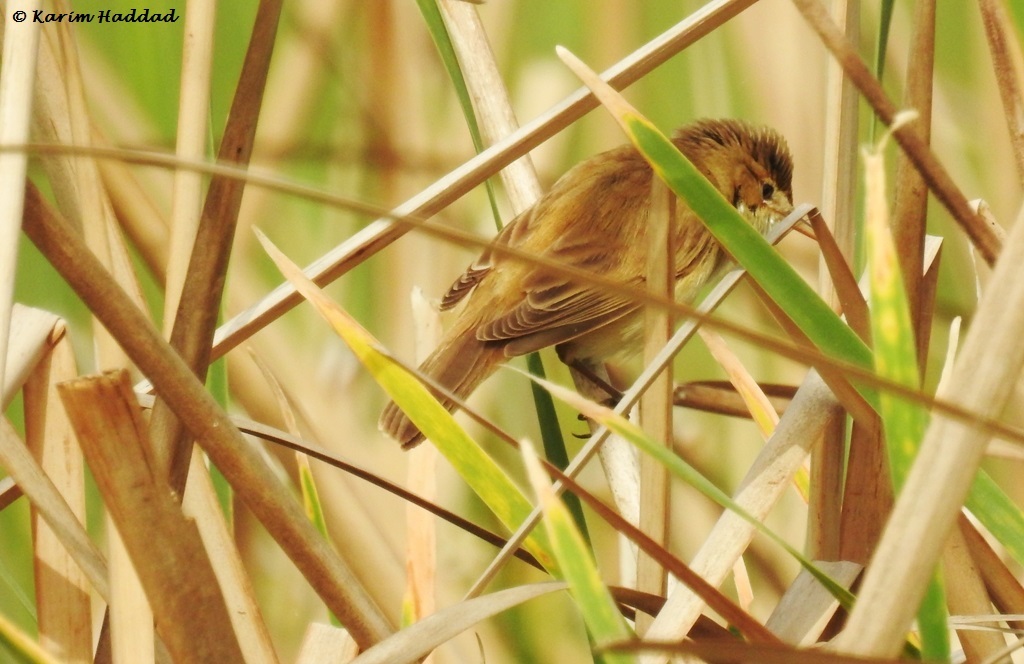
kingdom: Animalia
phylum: Chordata
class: Aves
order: Passeriformes
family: Acrocephalidae
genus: Acrocephalus
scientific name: Acrocephalus scirpaceus
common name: Eurasian reed warbler
